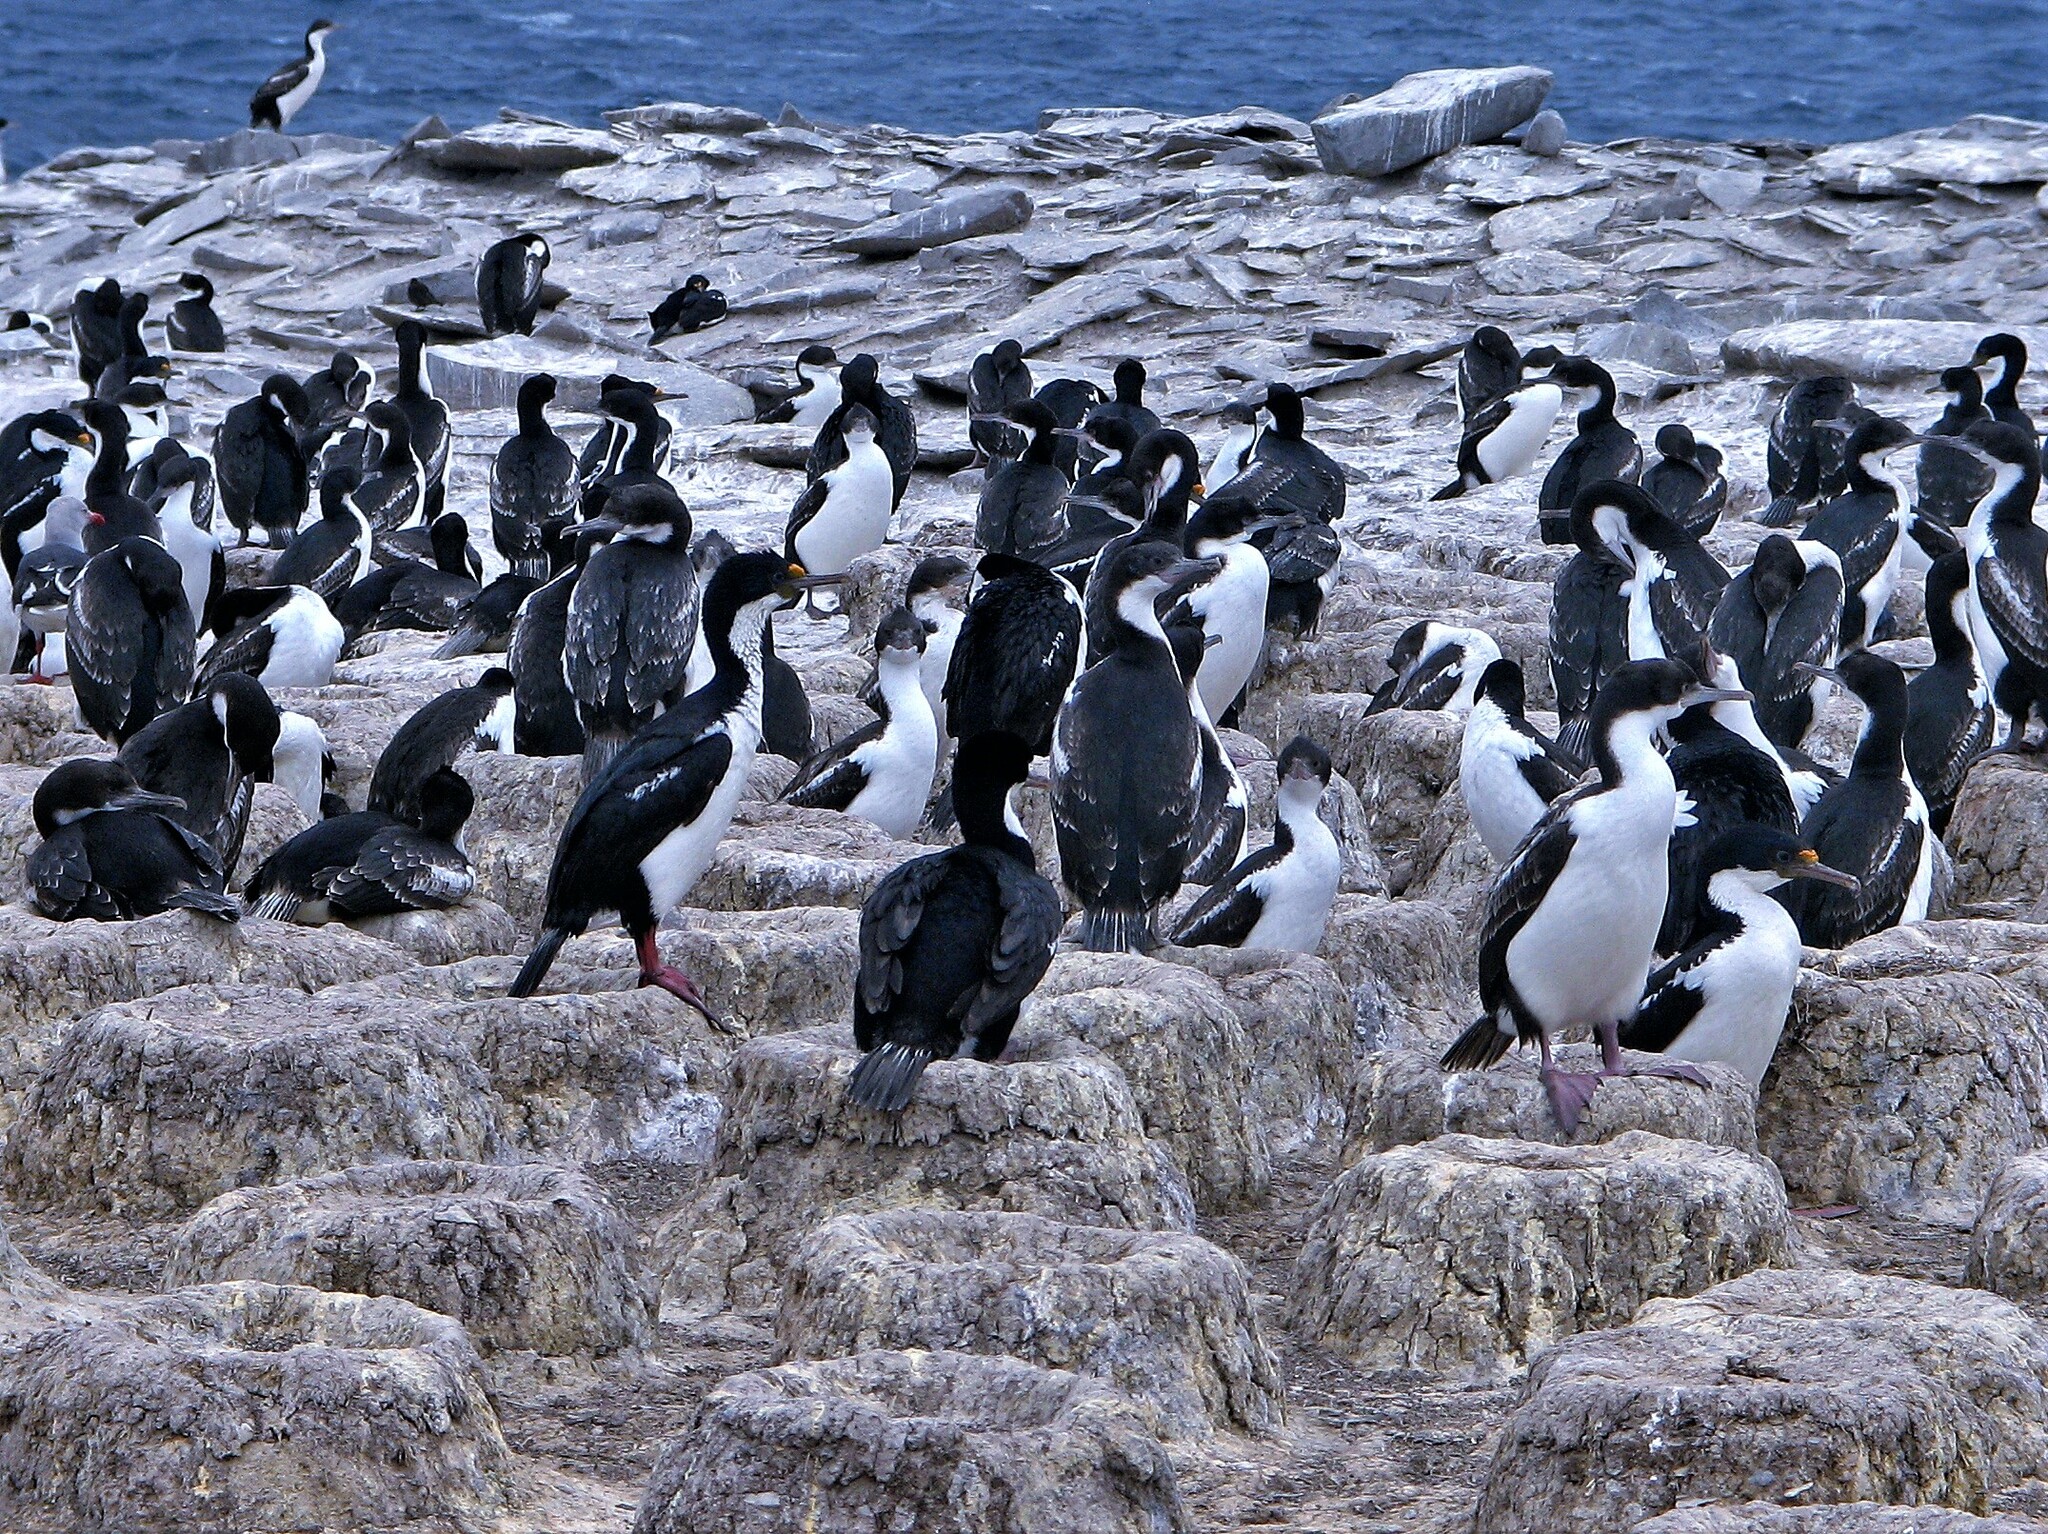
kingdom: Animalia
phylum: Chordata
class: Aves
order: Suliformes
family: Phalacrocoracidae
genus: Leucocarbo
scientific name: Leucocarbo atriceps
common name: Imperial shag
